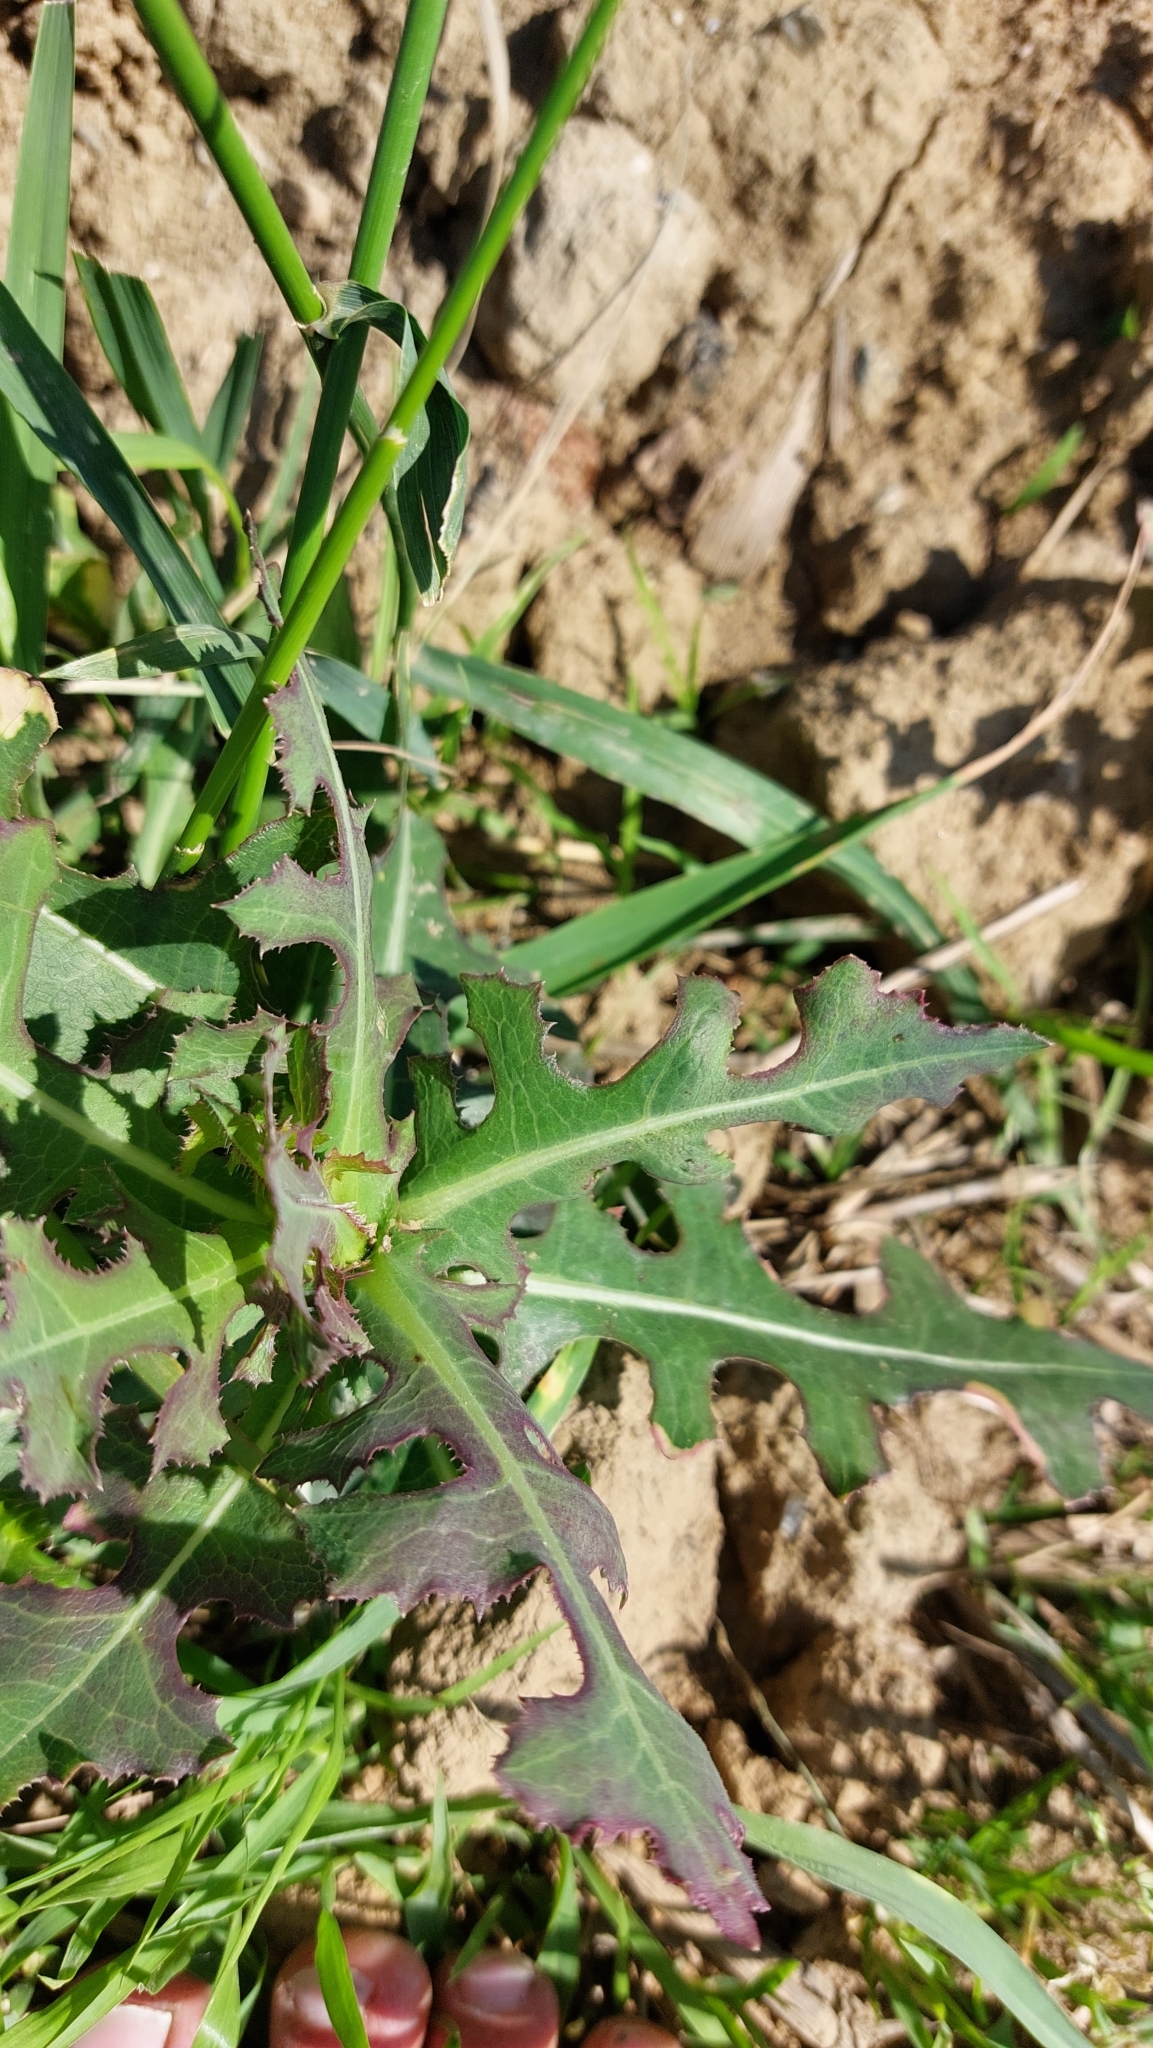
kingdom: Plantae
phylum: Tracheophyta
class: Magnoliopsida
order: Asterales
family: Asteraceae
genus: Lactuca
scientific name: Lactuca serriola
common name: Prickly lettuce
